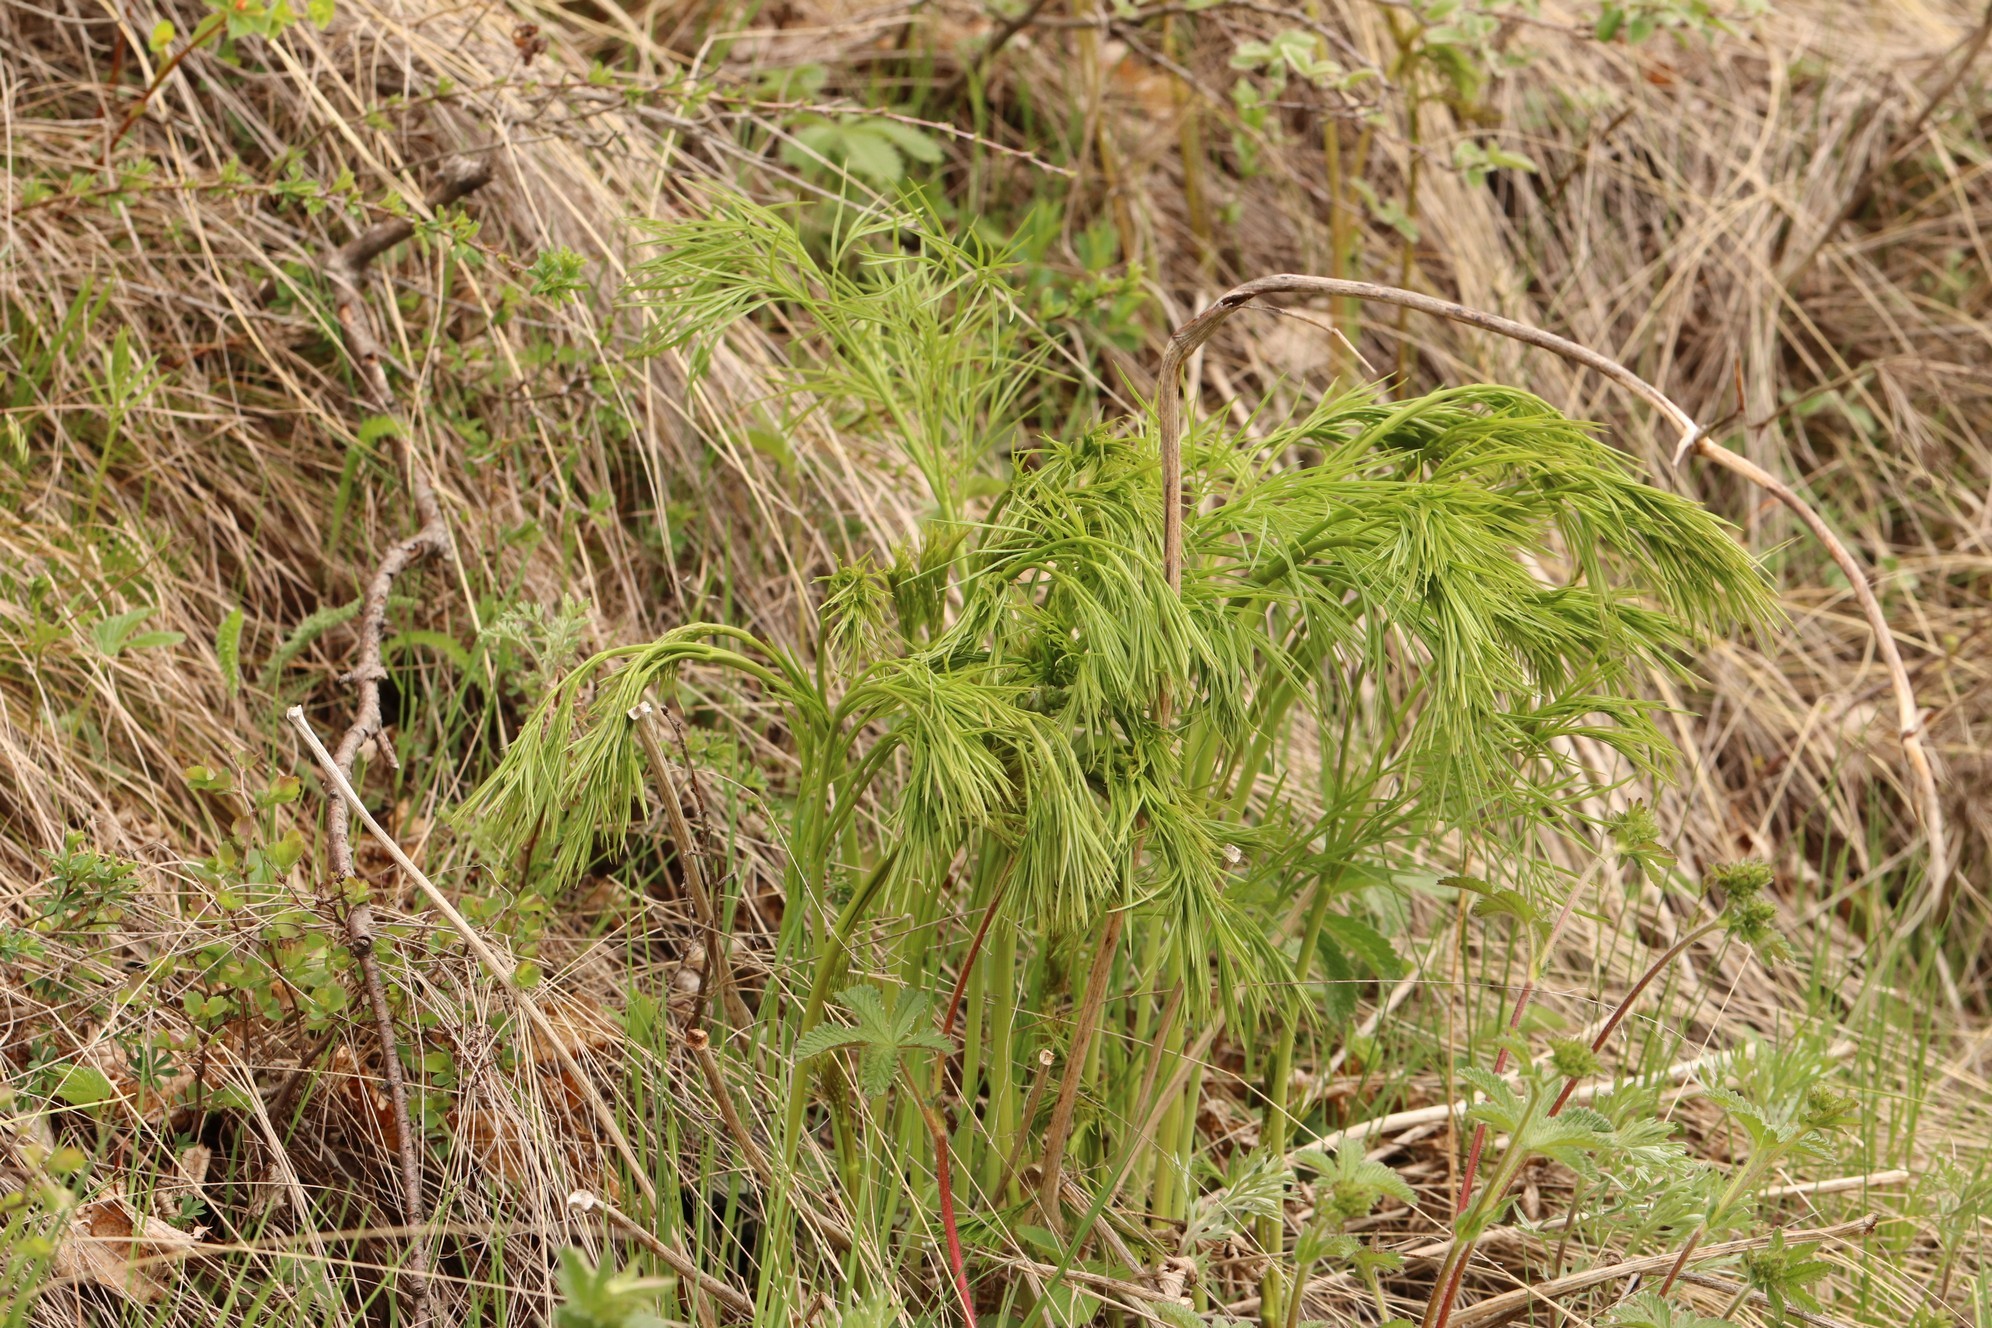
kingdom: Plantae
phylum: Tracheophyta
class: Magnoliopsida
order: Apiales
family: Apiaceae
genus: Peucedanum
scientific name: Peucedanum morisonii
